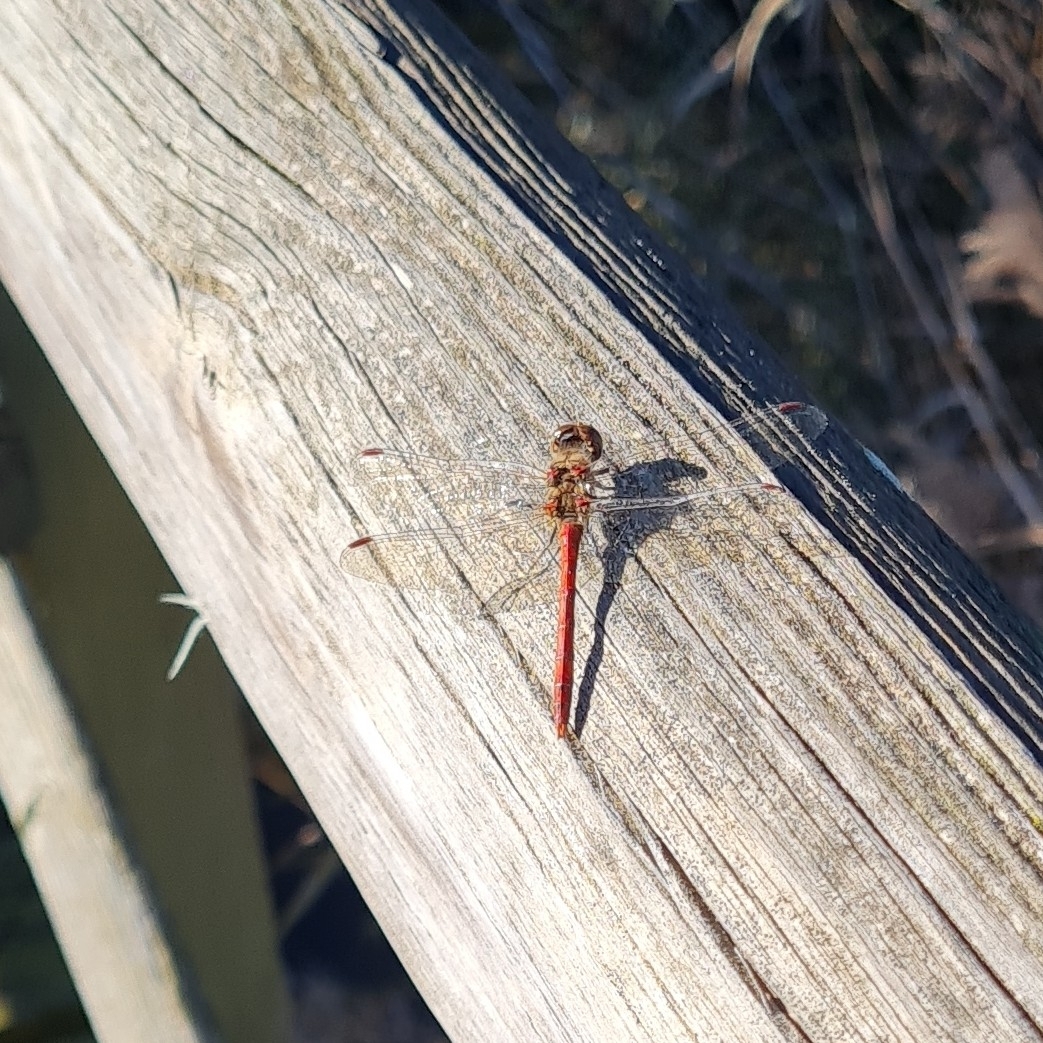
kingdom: Animalia
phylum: Arthropoda
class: Insecta
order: Odonata
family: Libellulidae
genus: Sympetrum
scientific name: Sympetrum striolatum
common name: Common darter
